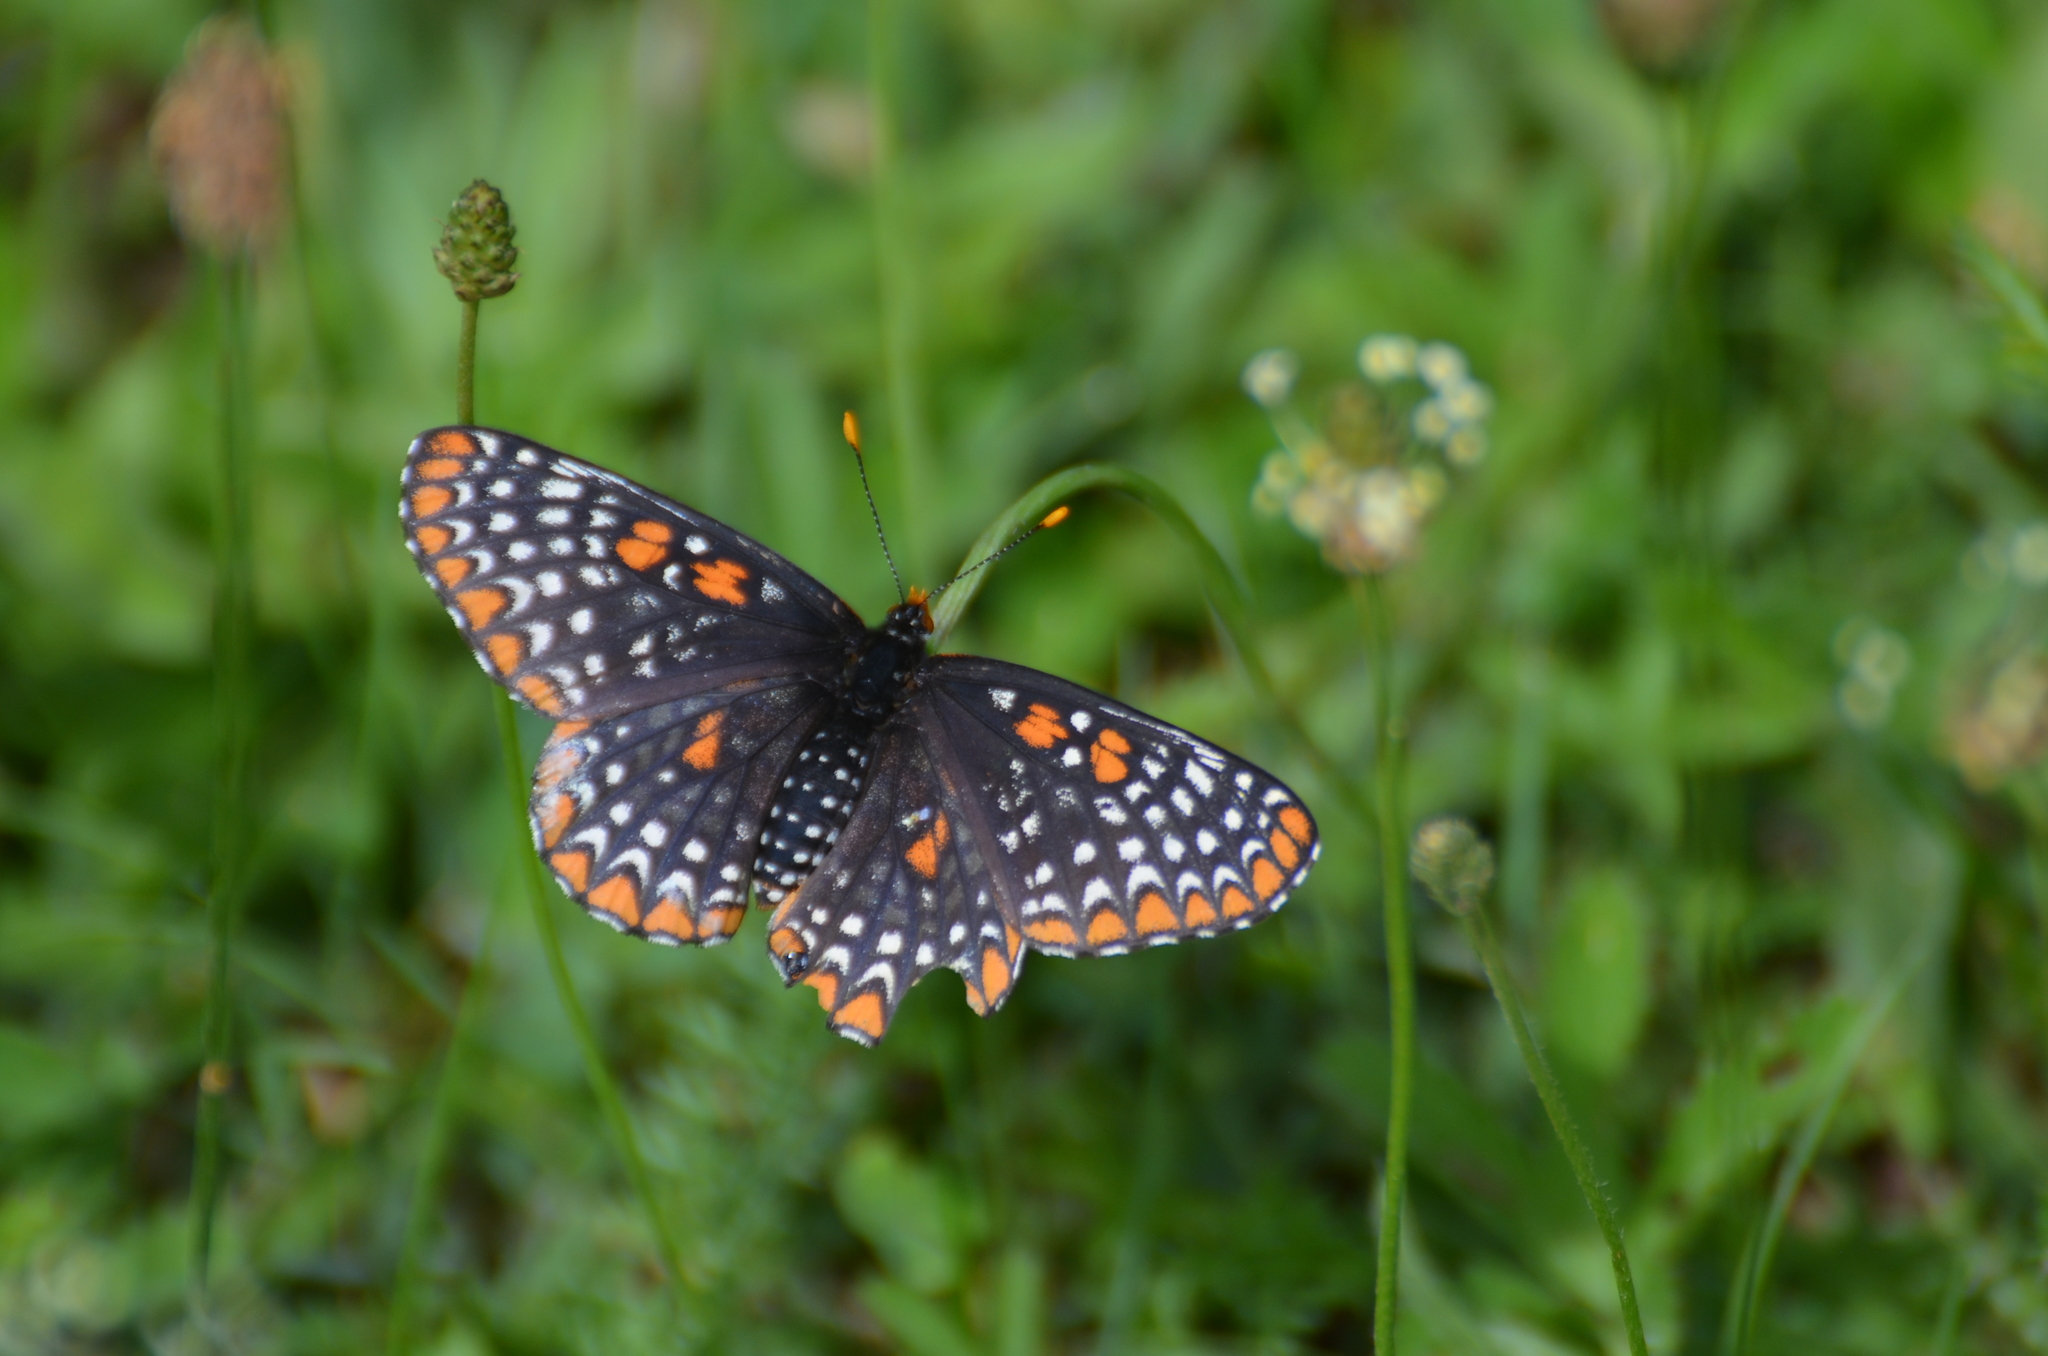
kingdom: Animalia
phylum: Arthropoda
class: Insecta
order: Lepidoptera
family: Nymphalidae
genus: Euphydryas
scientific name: Euphydryas phaeton
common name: Baltimore checkerspot
